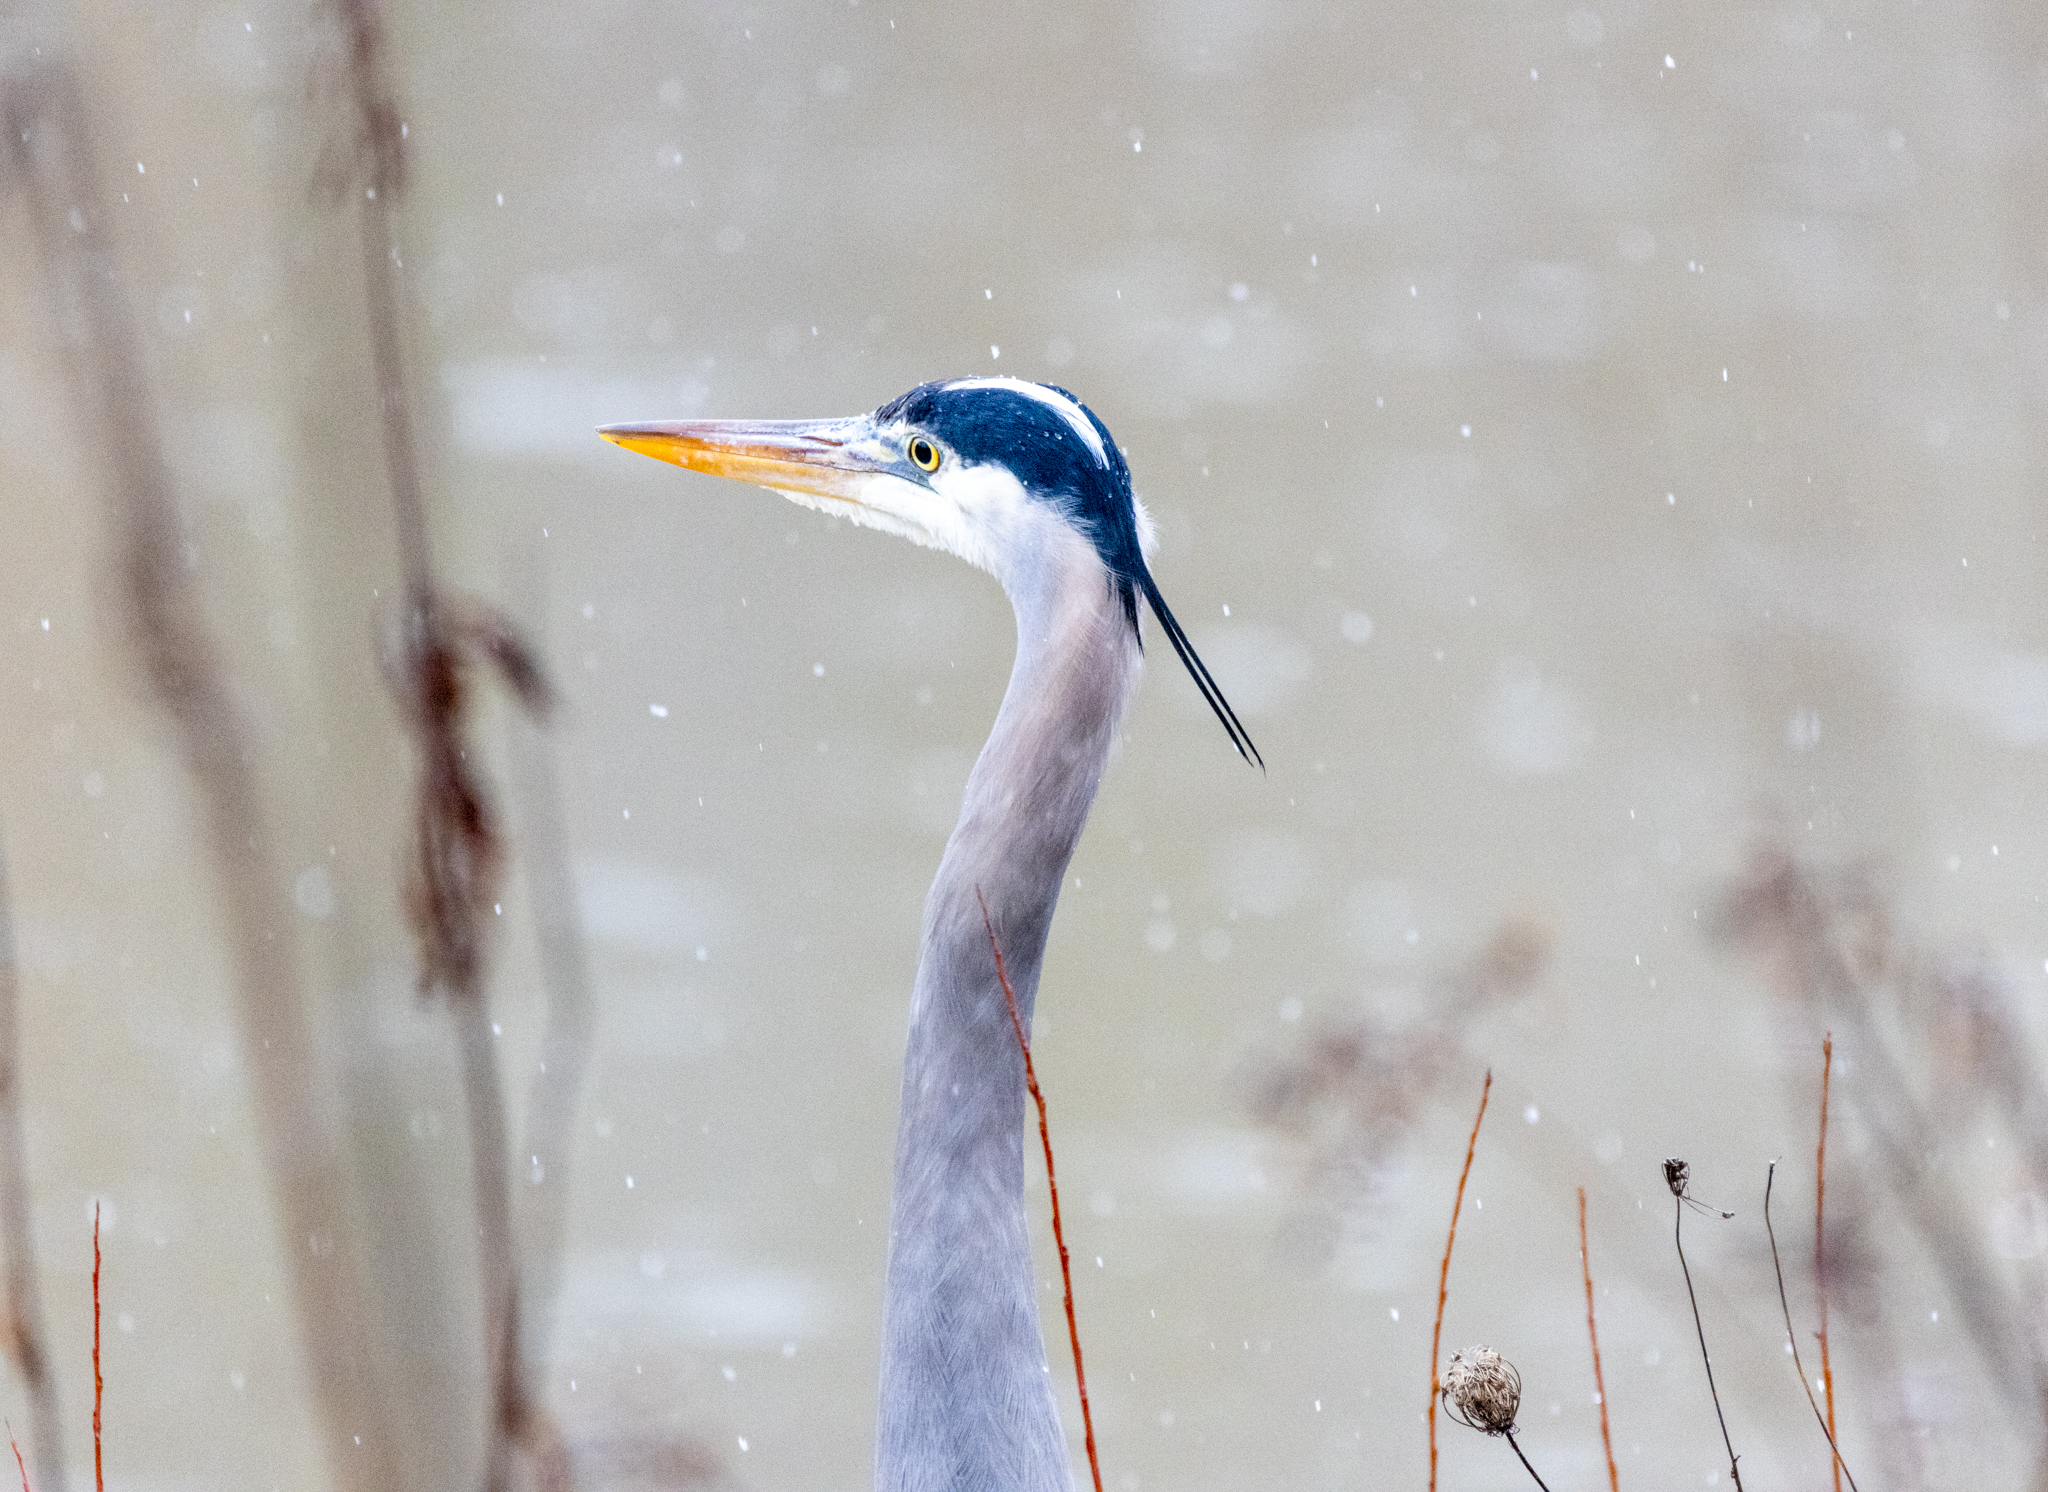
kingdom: Animalia
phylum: Chordata
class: Aves
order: Pelecaniformes
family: Ardeidae
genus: Ardea
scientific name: Ardea herodias
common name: Great blue heron
